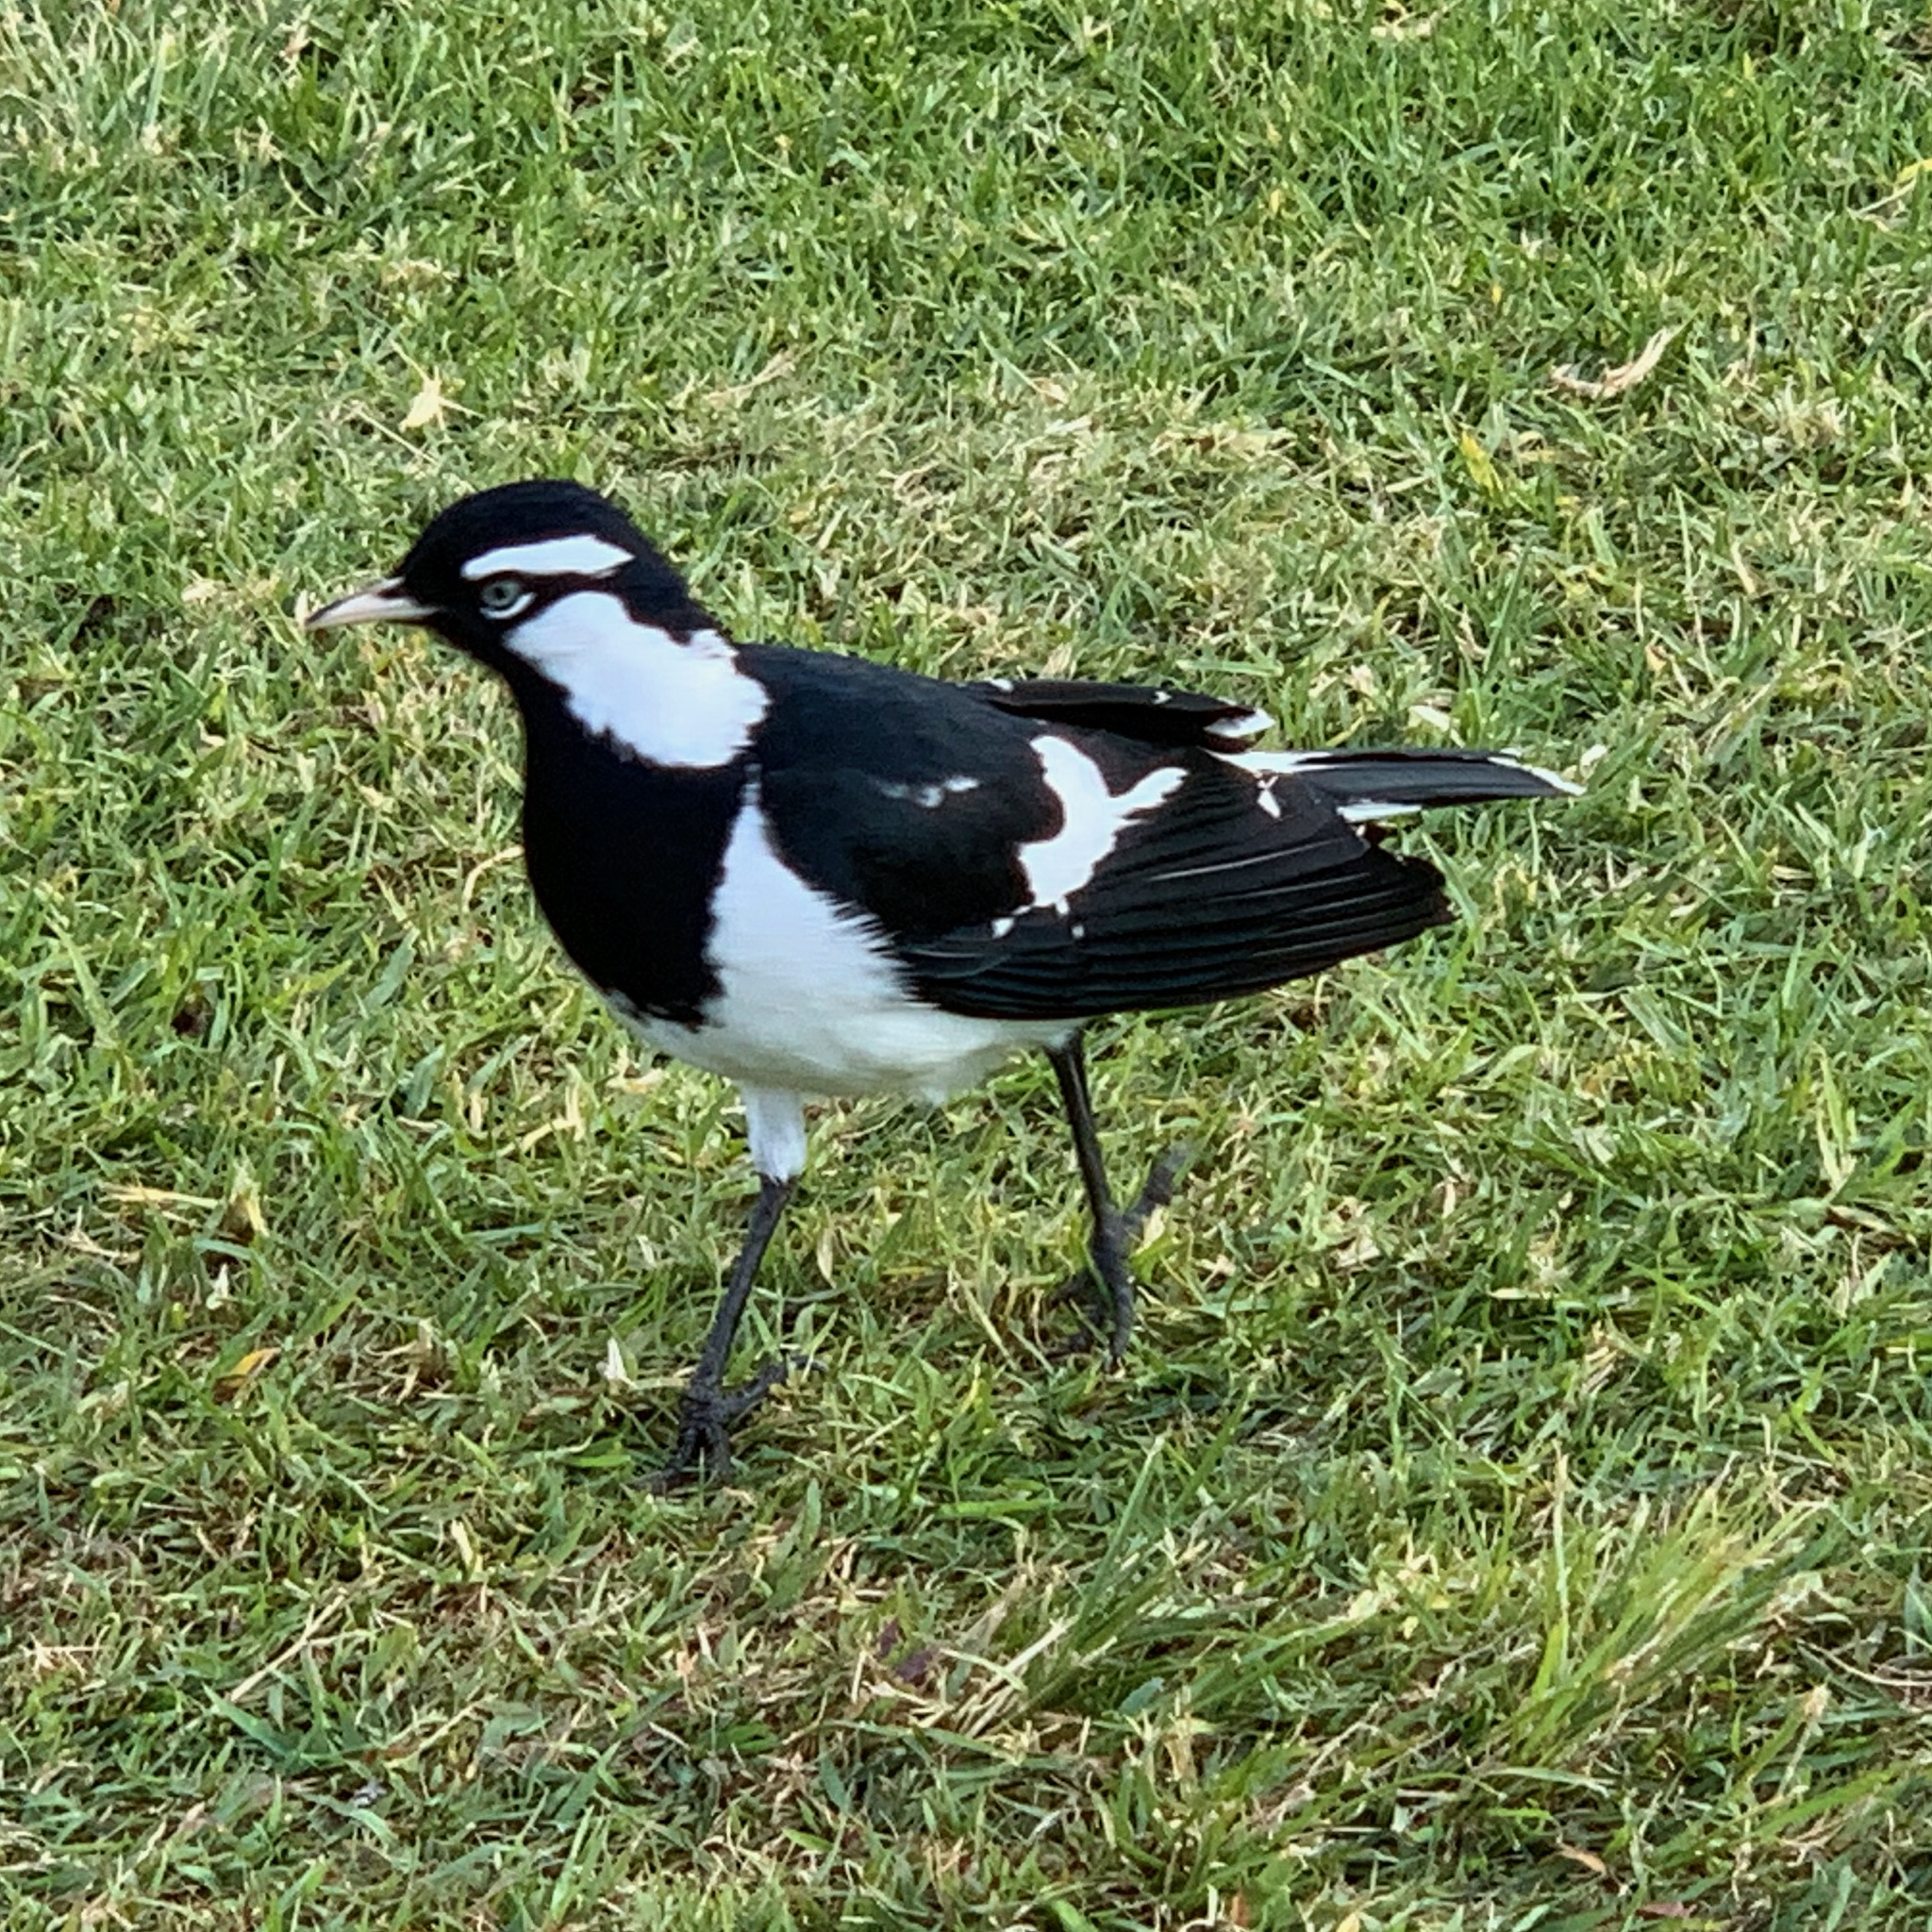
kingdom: Animalia
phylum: Chordata
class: Aves
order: Passeriformes
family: Monarchidae
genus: Grallina
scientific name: Grallina cyanoleuca
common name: Magpie-lark
